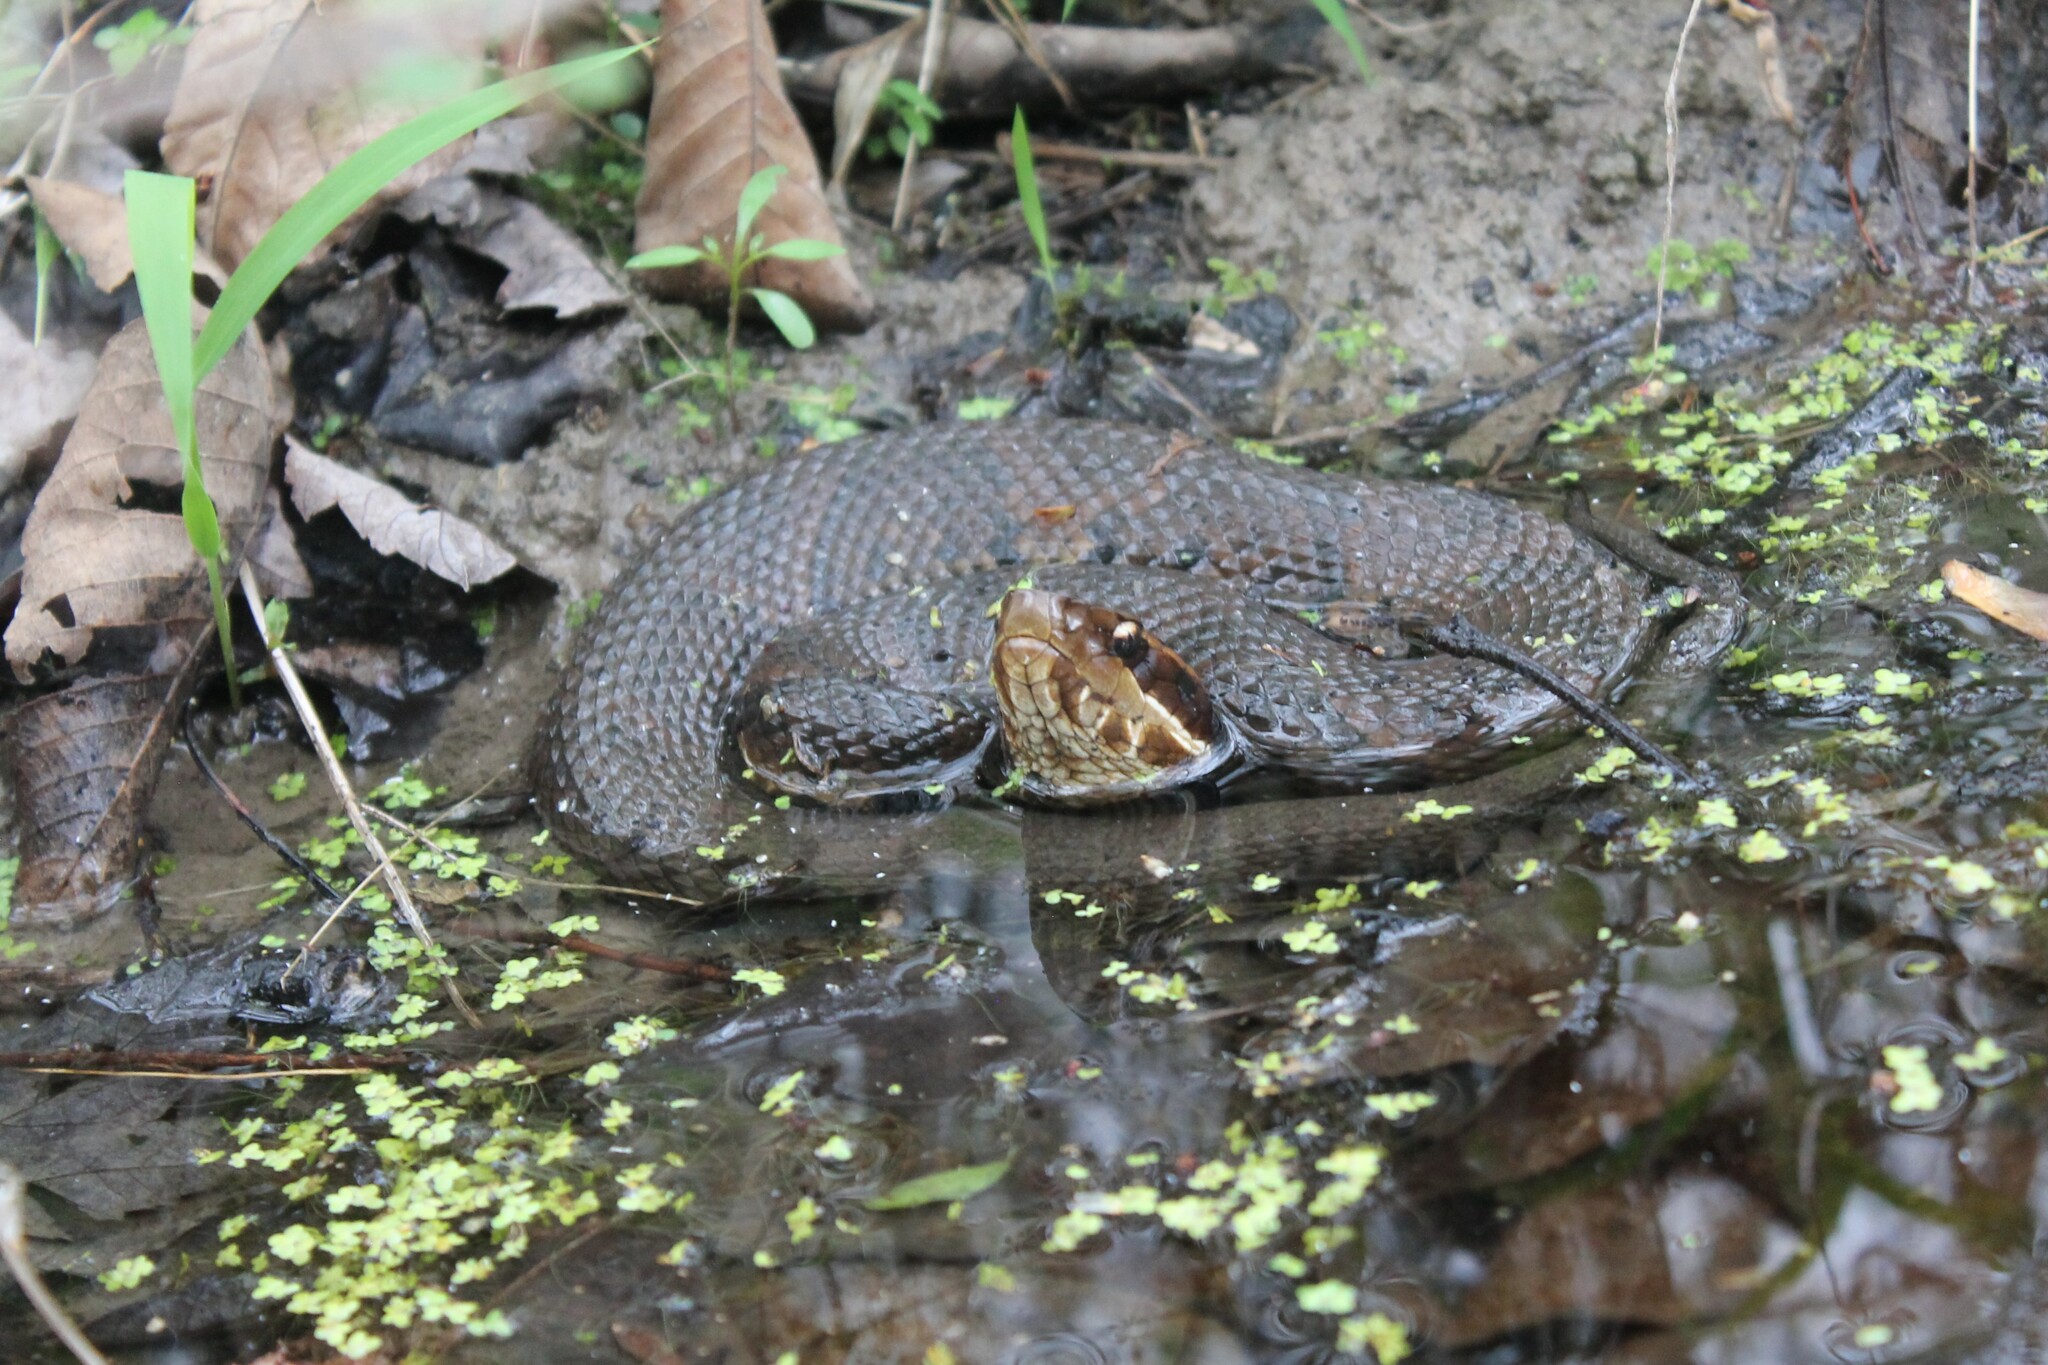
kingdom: Animalia
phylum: Chordata
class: Squamata
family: Viperidae
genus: Agkistrodon
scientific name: Agkistrodon piscivorus
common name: Cottonmouth
